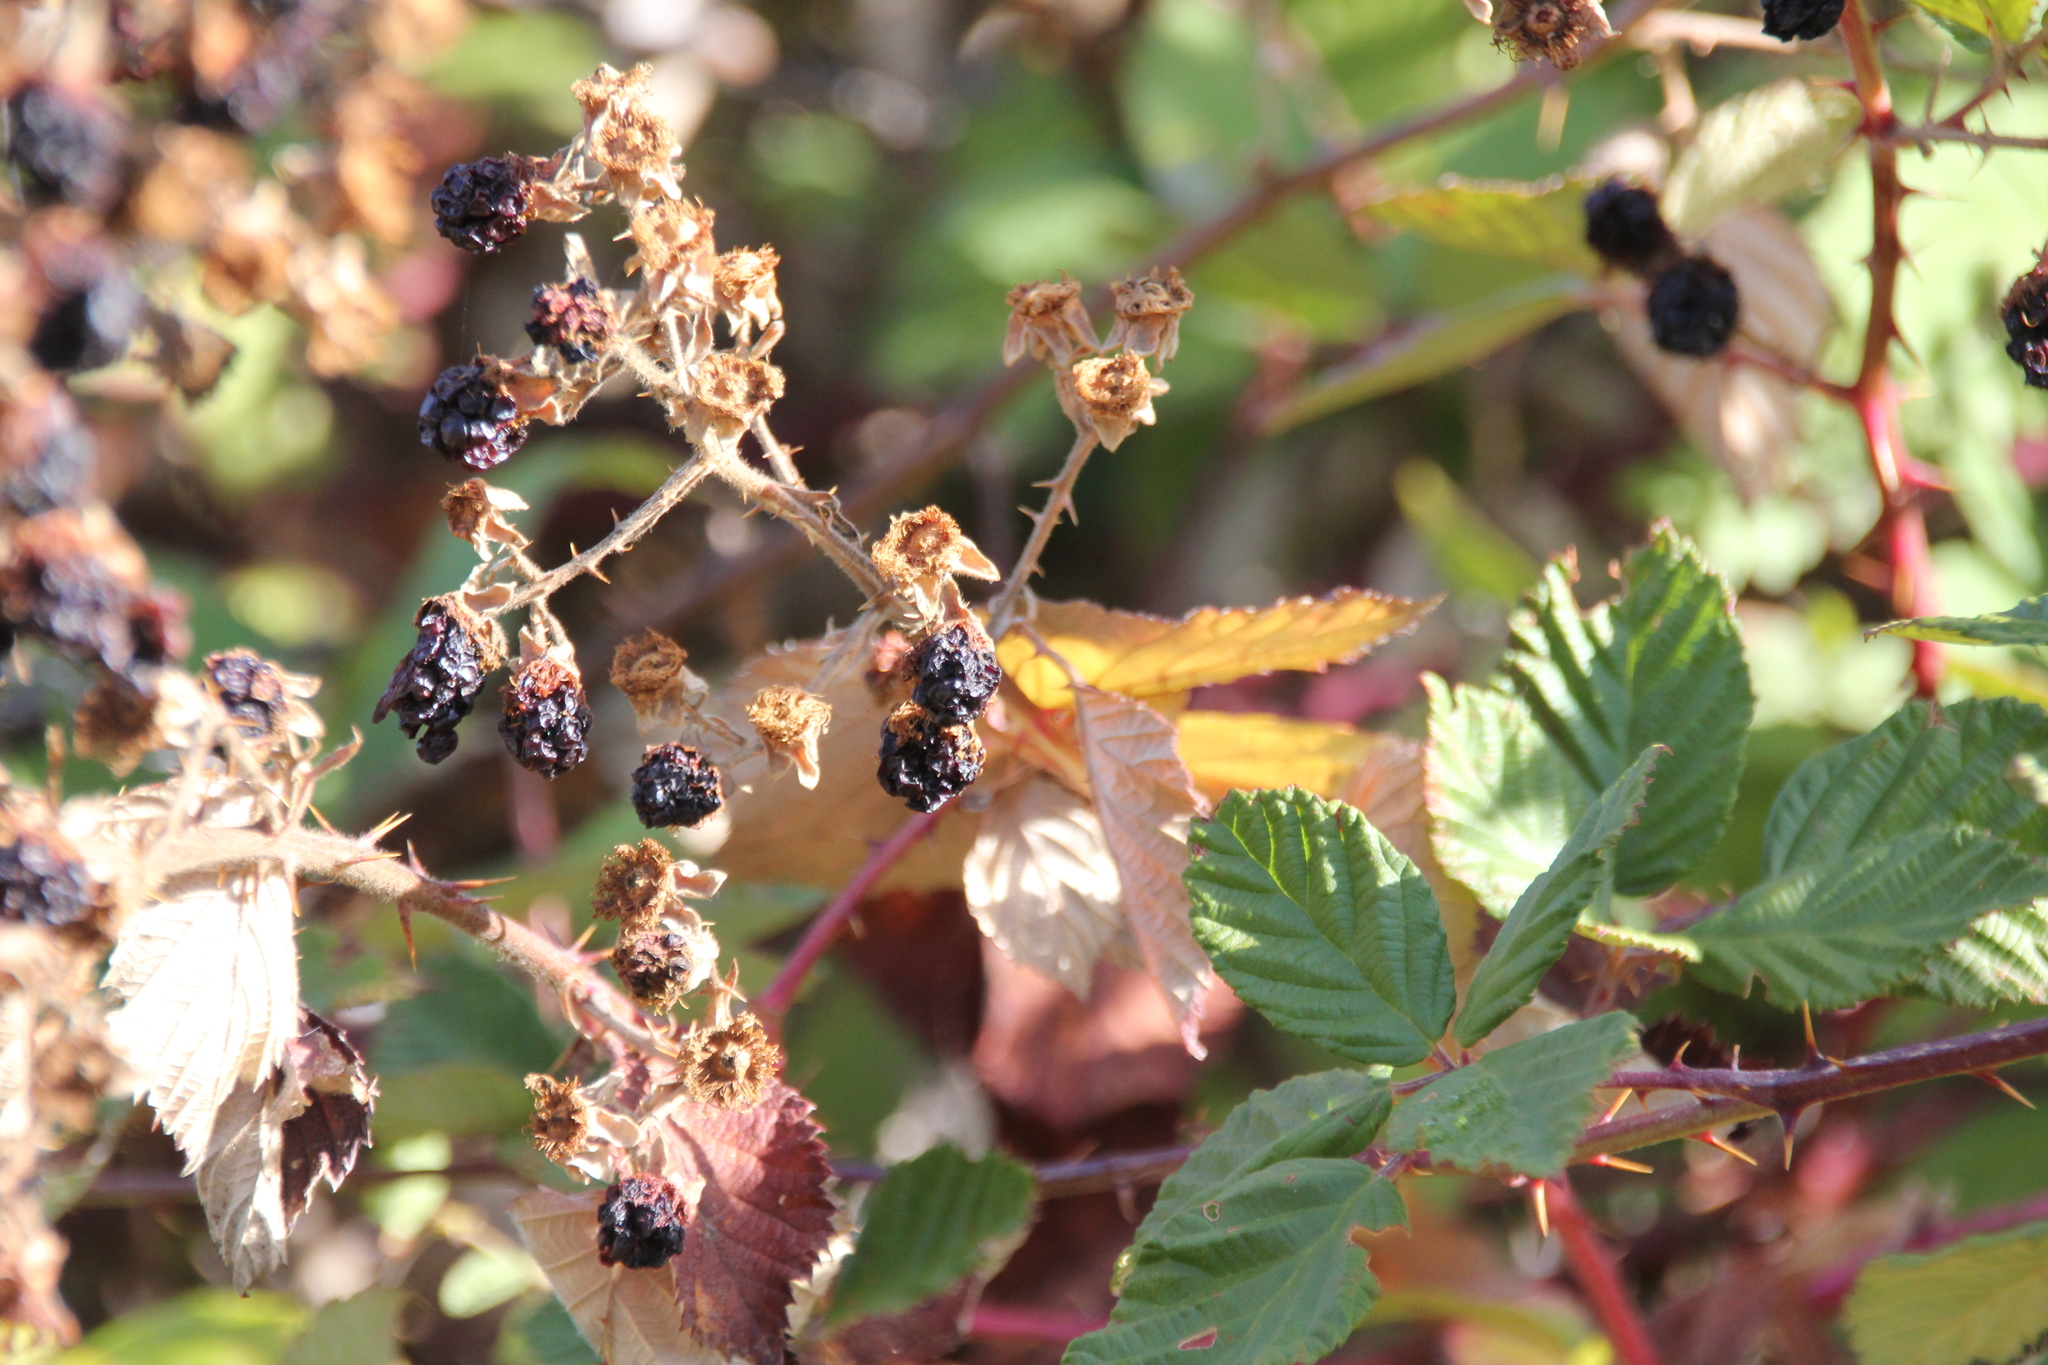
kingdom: Plantae
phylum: Tracheophyta
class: Magnoliopsida
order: Rosales
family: Rosaceae
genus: Rubus
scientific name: Rubus armeniacus
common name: Himalayan blackberry
